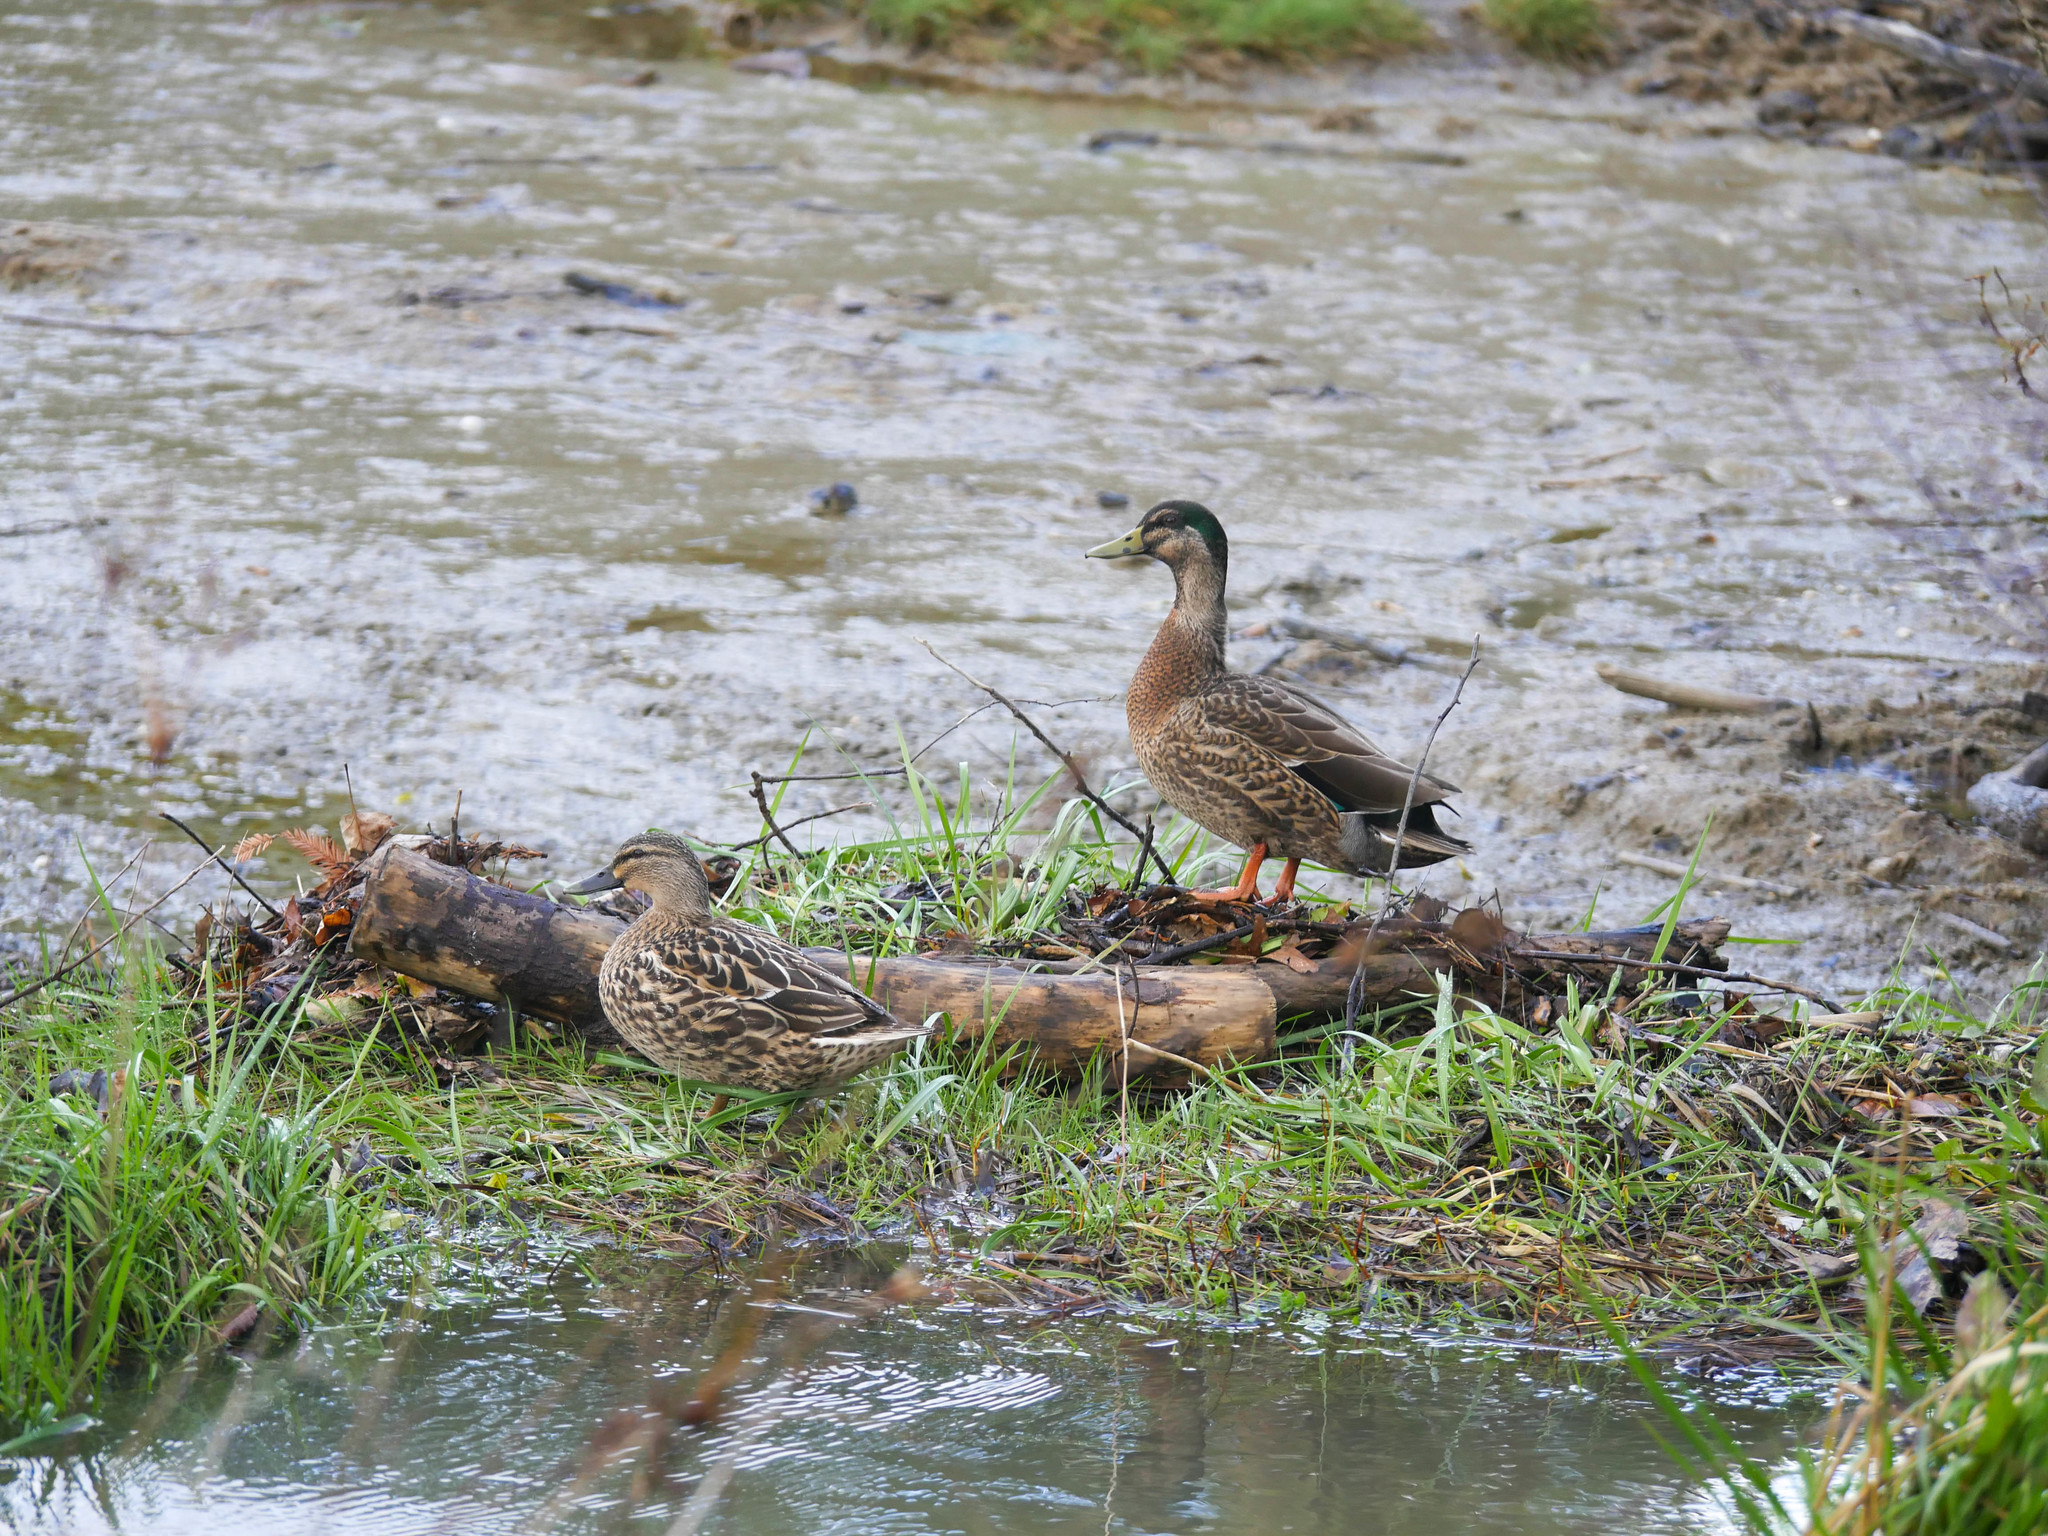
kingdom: Animalia
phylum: Chordata
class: Aves
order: Anseriformes
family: Anatidae
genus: Anas
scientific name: Anas platyrhynchos
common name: Mallard
